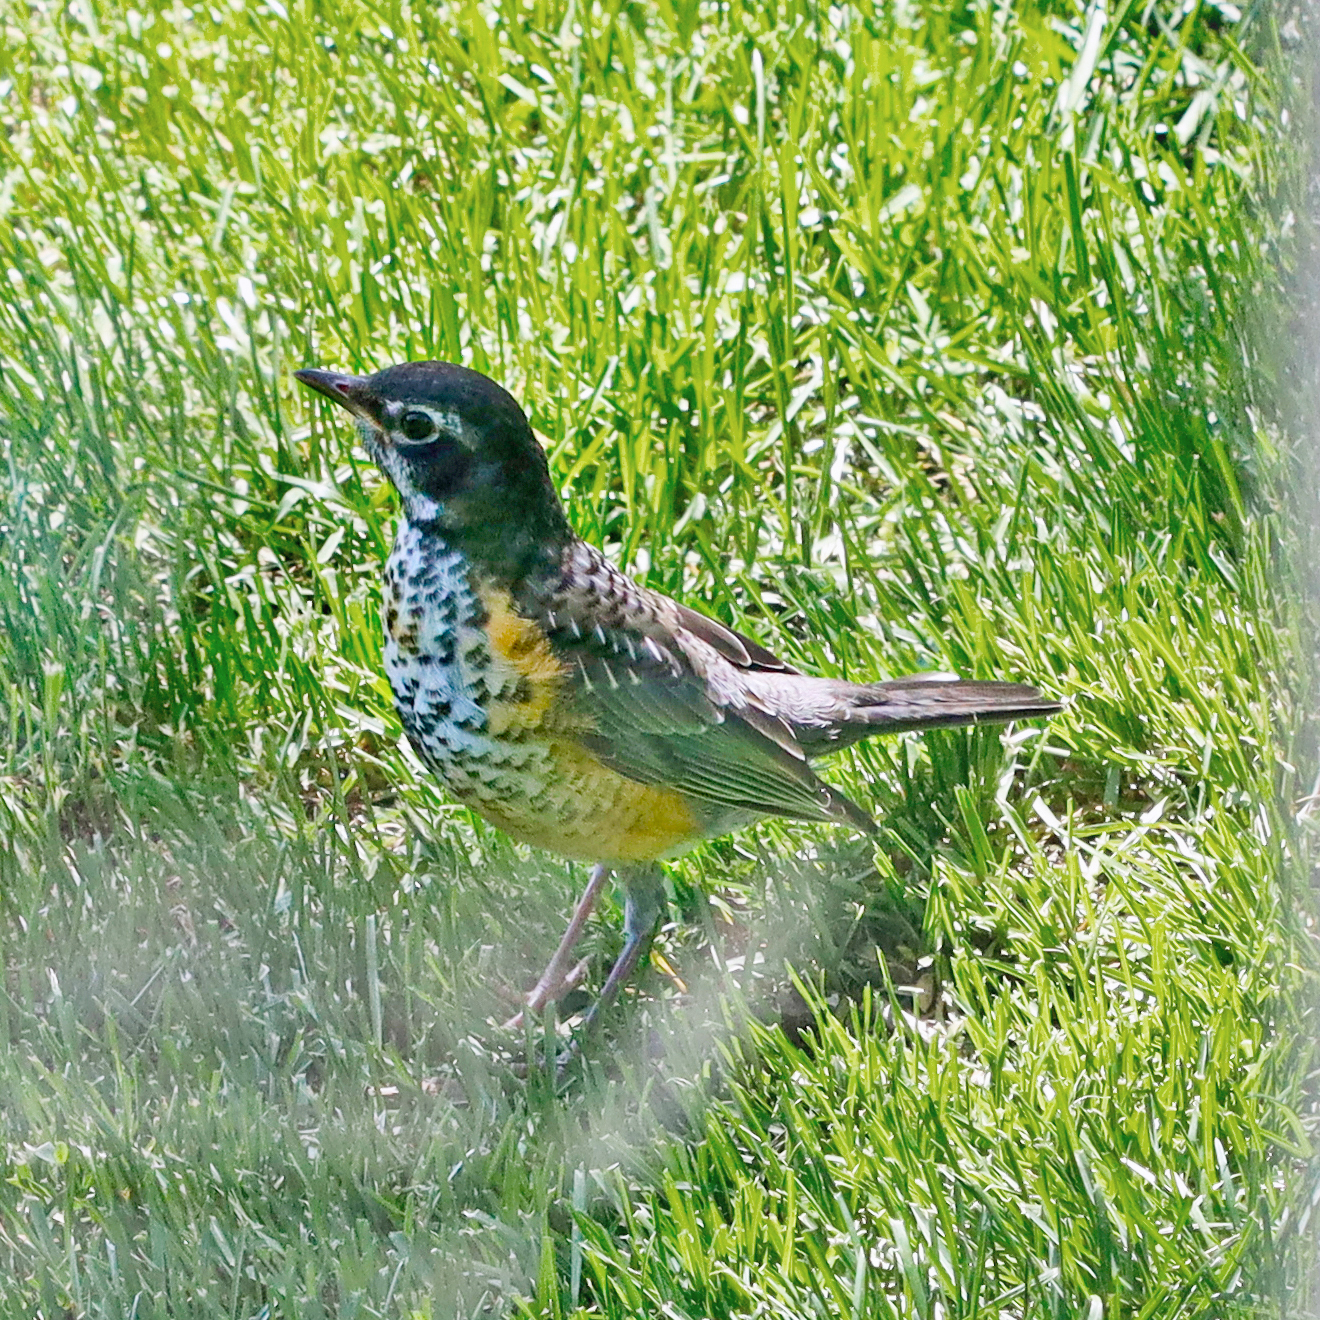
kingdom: Animalia
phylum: Chordata
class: Aves
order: Passeriformes
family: Turdidae
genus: Turdus
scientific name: Turdus migratorius
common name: American robin
